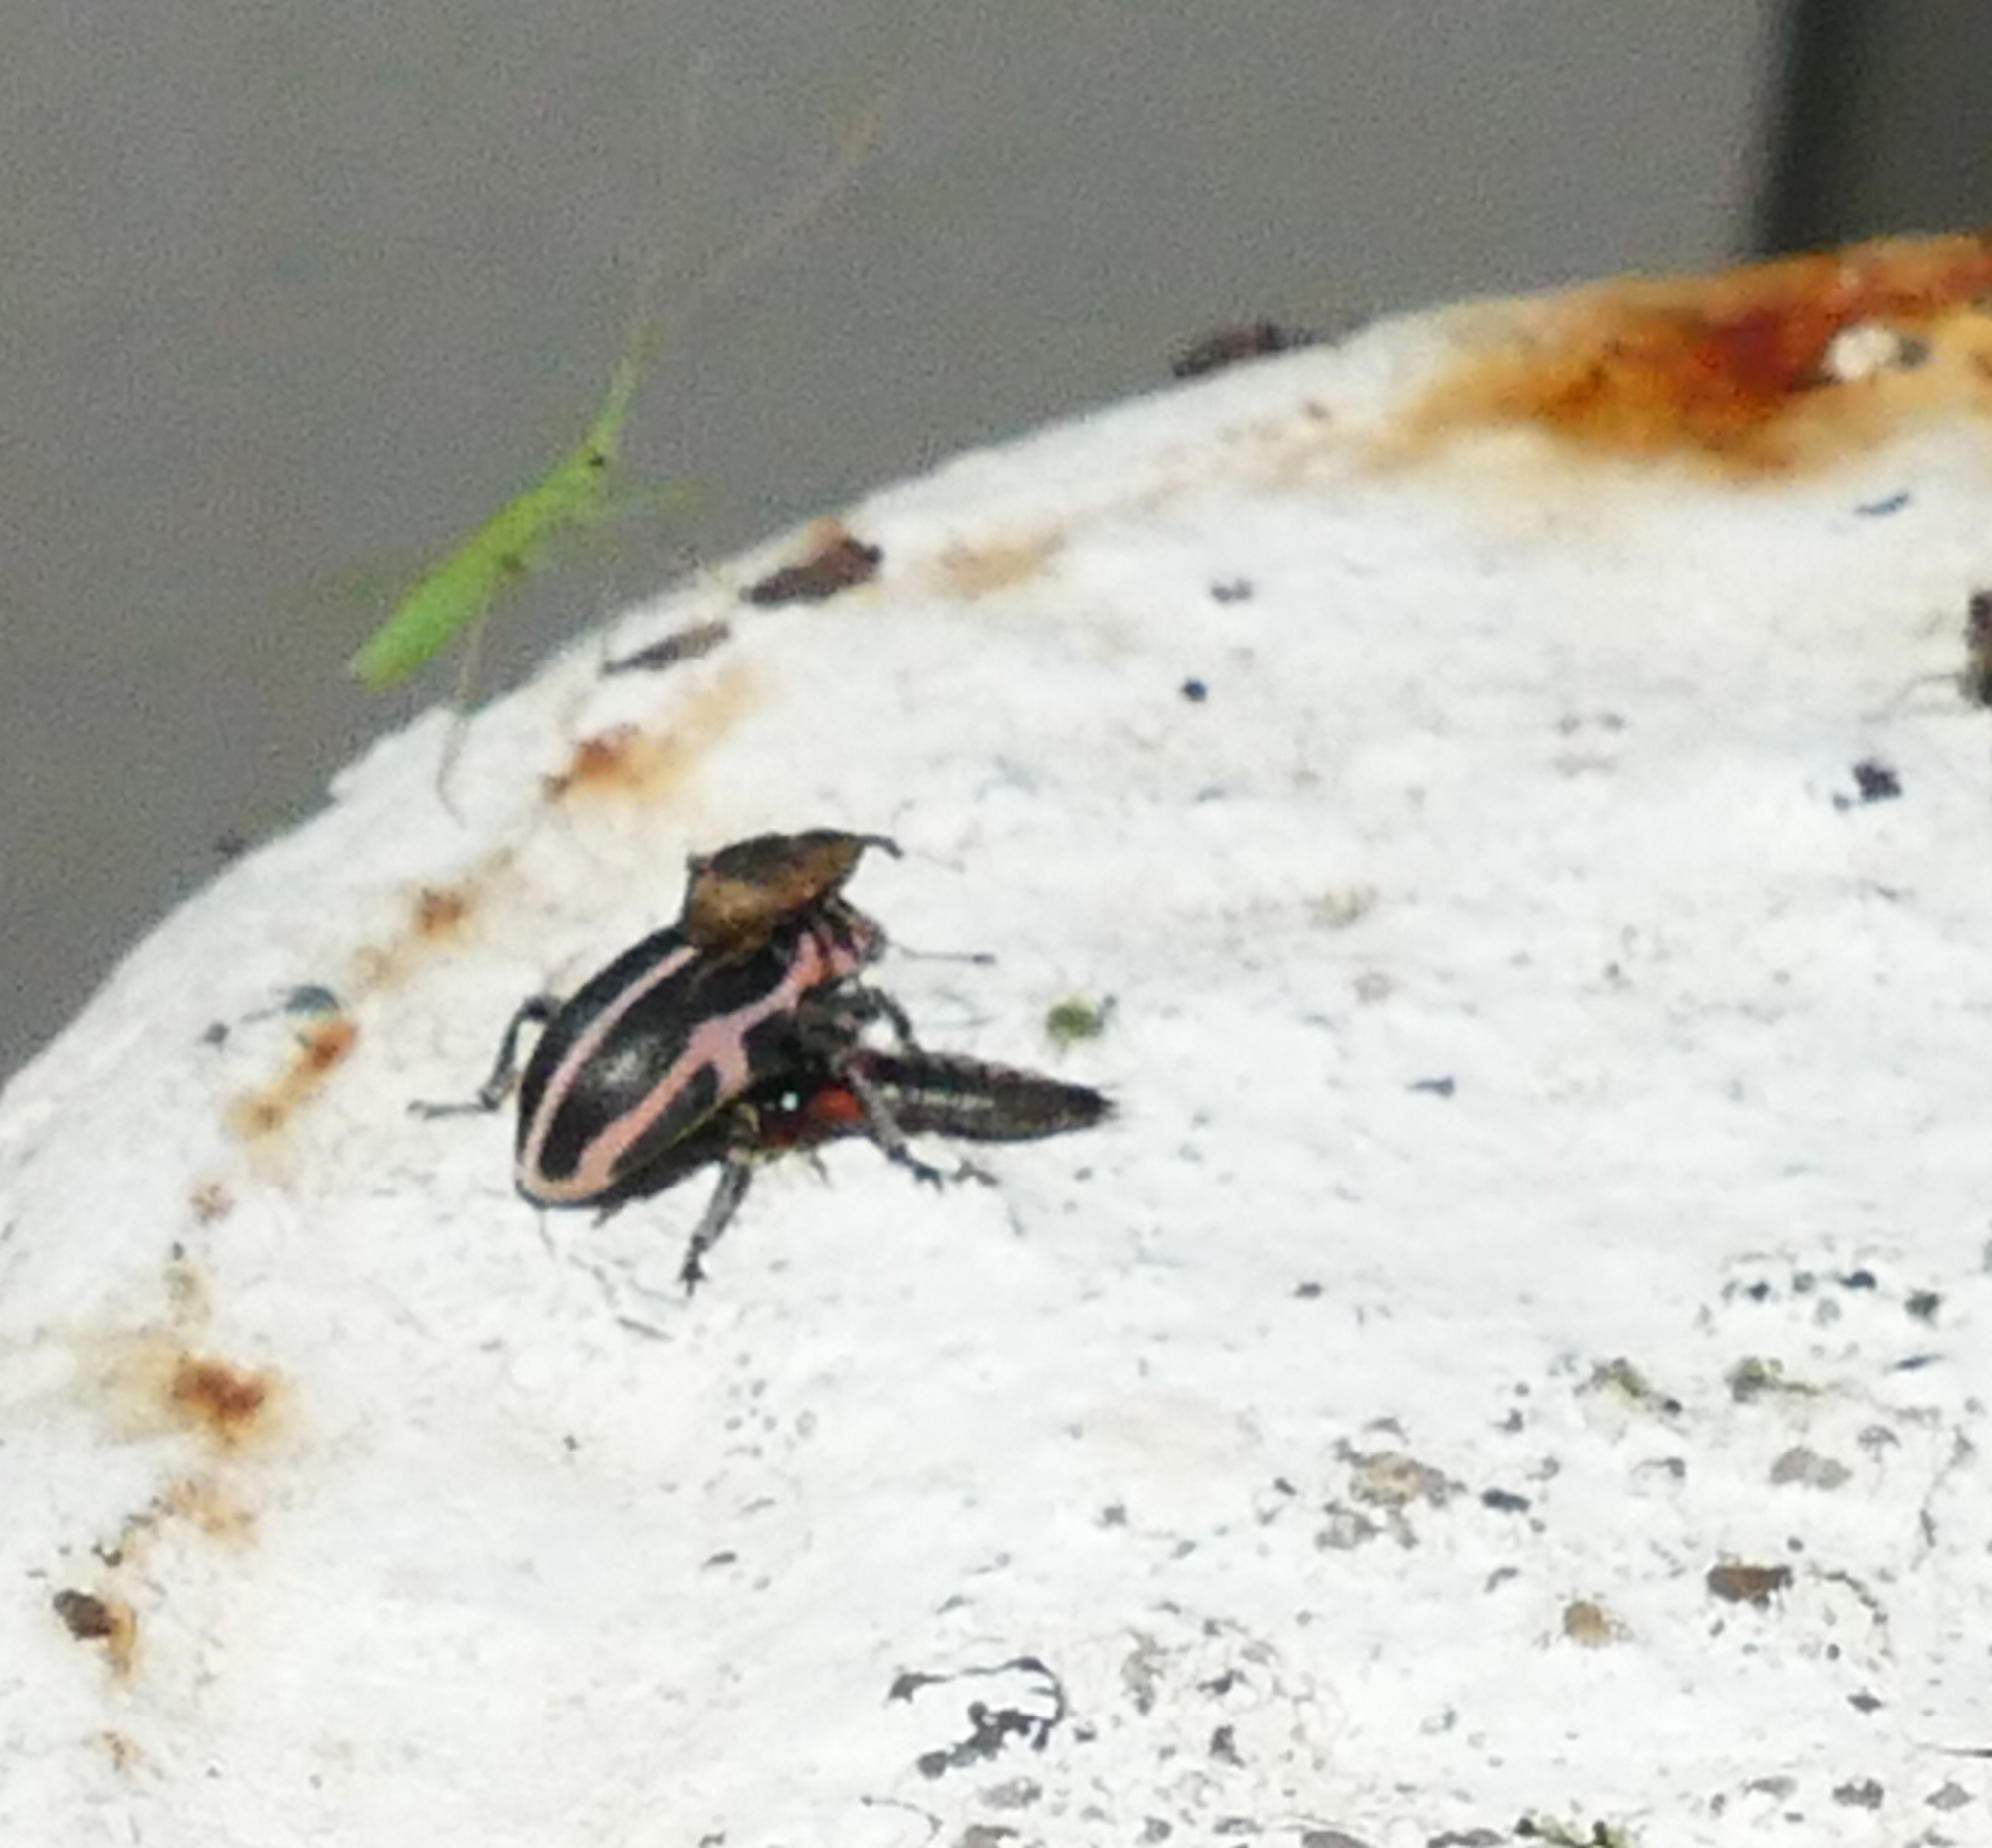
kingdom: Animalia
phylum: Arthropoda
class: Insecta
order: Coleoptera
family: Curculionidae
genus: Eudiagogus
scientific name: Eudiagogus pulcher
